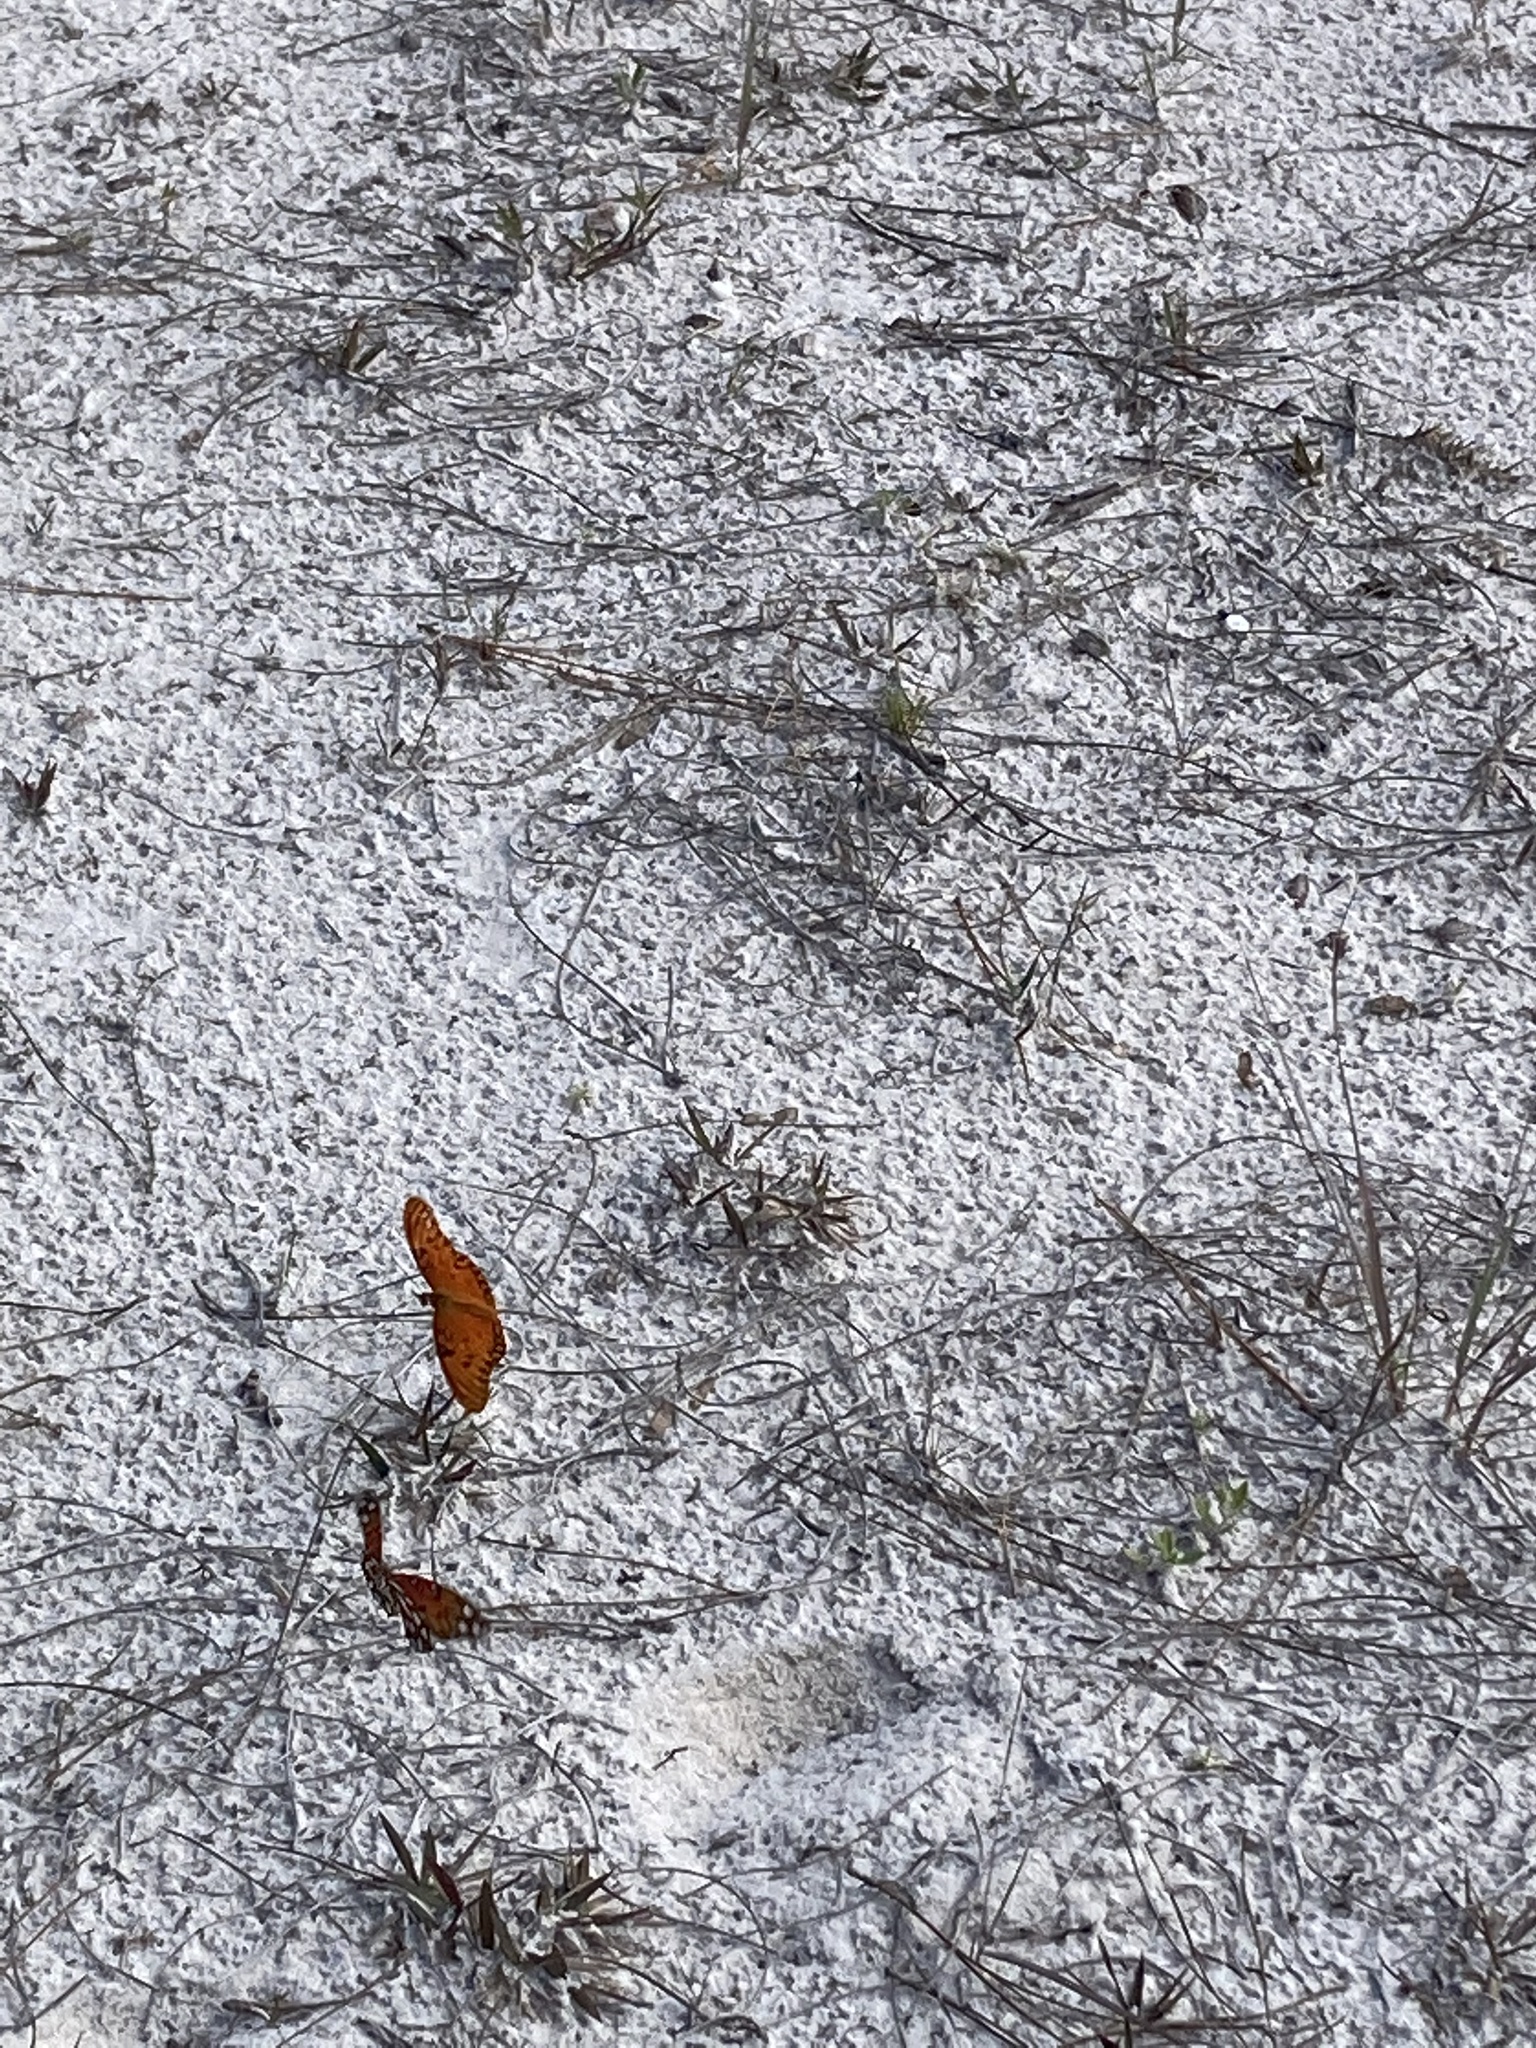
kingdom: Animalia
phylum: Arthropoda
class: Insecta
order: Lepidoptera
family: Nymphalidae
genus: Dione
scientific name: Dione vanillae
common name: Gulf fritillary
